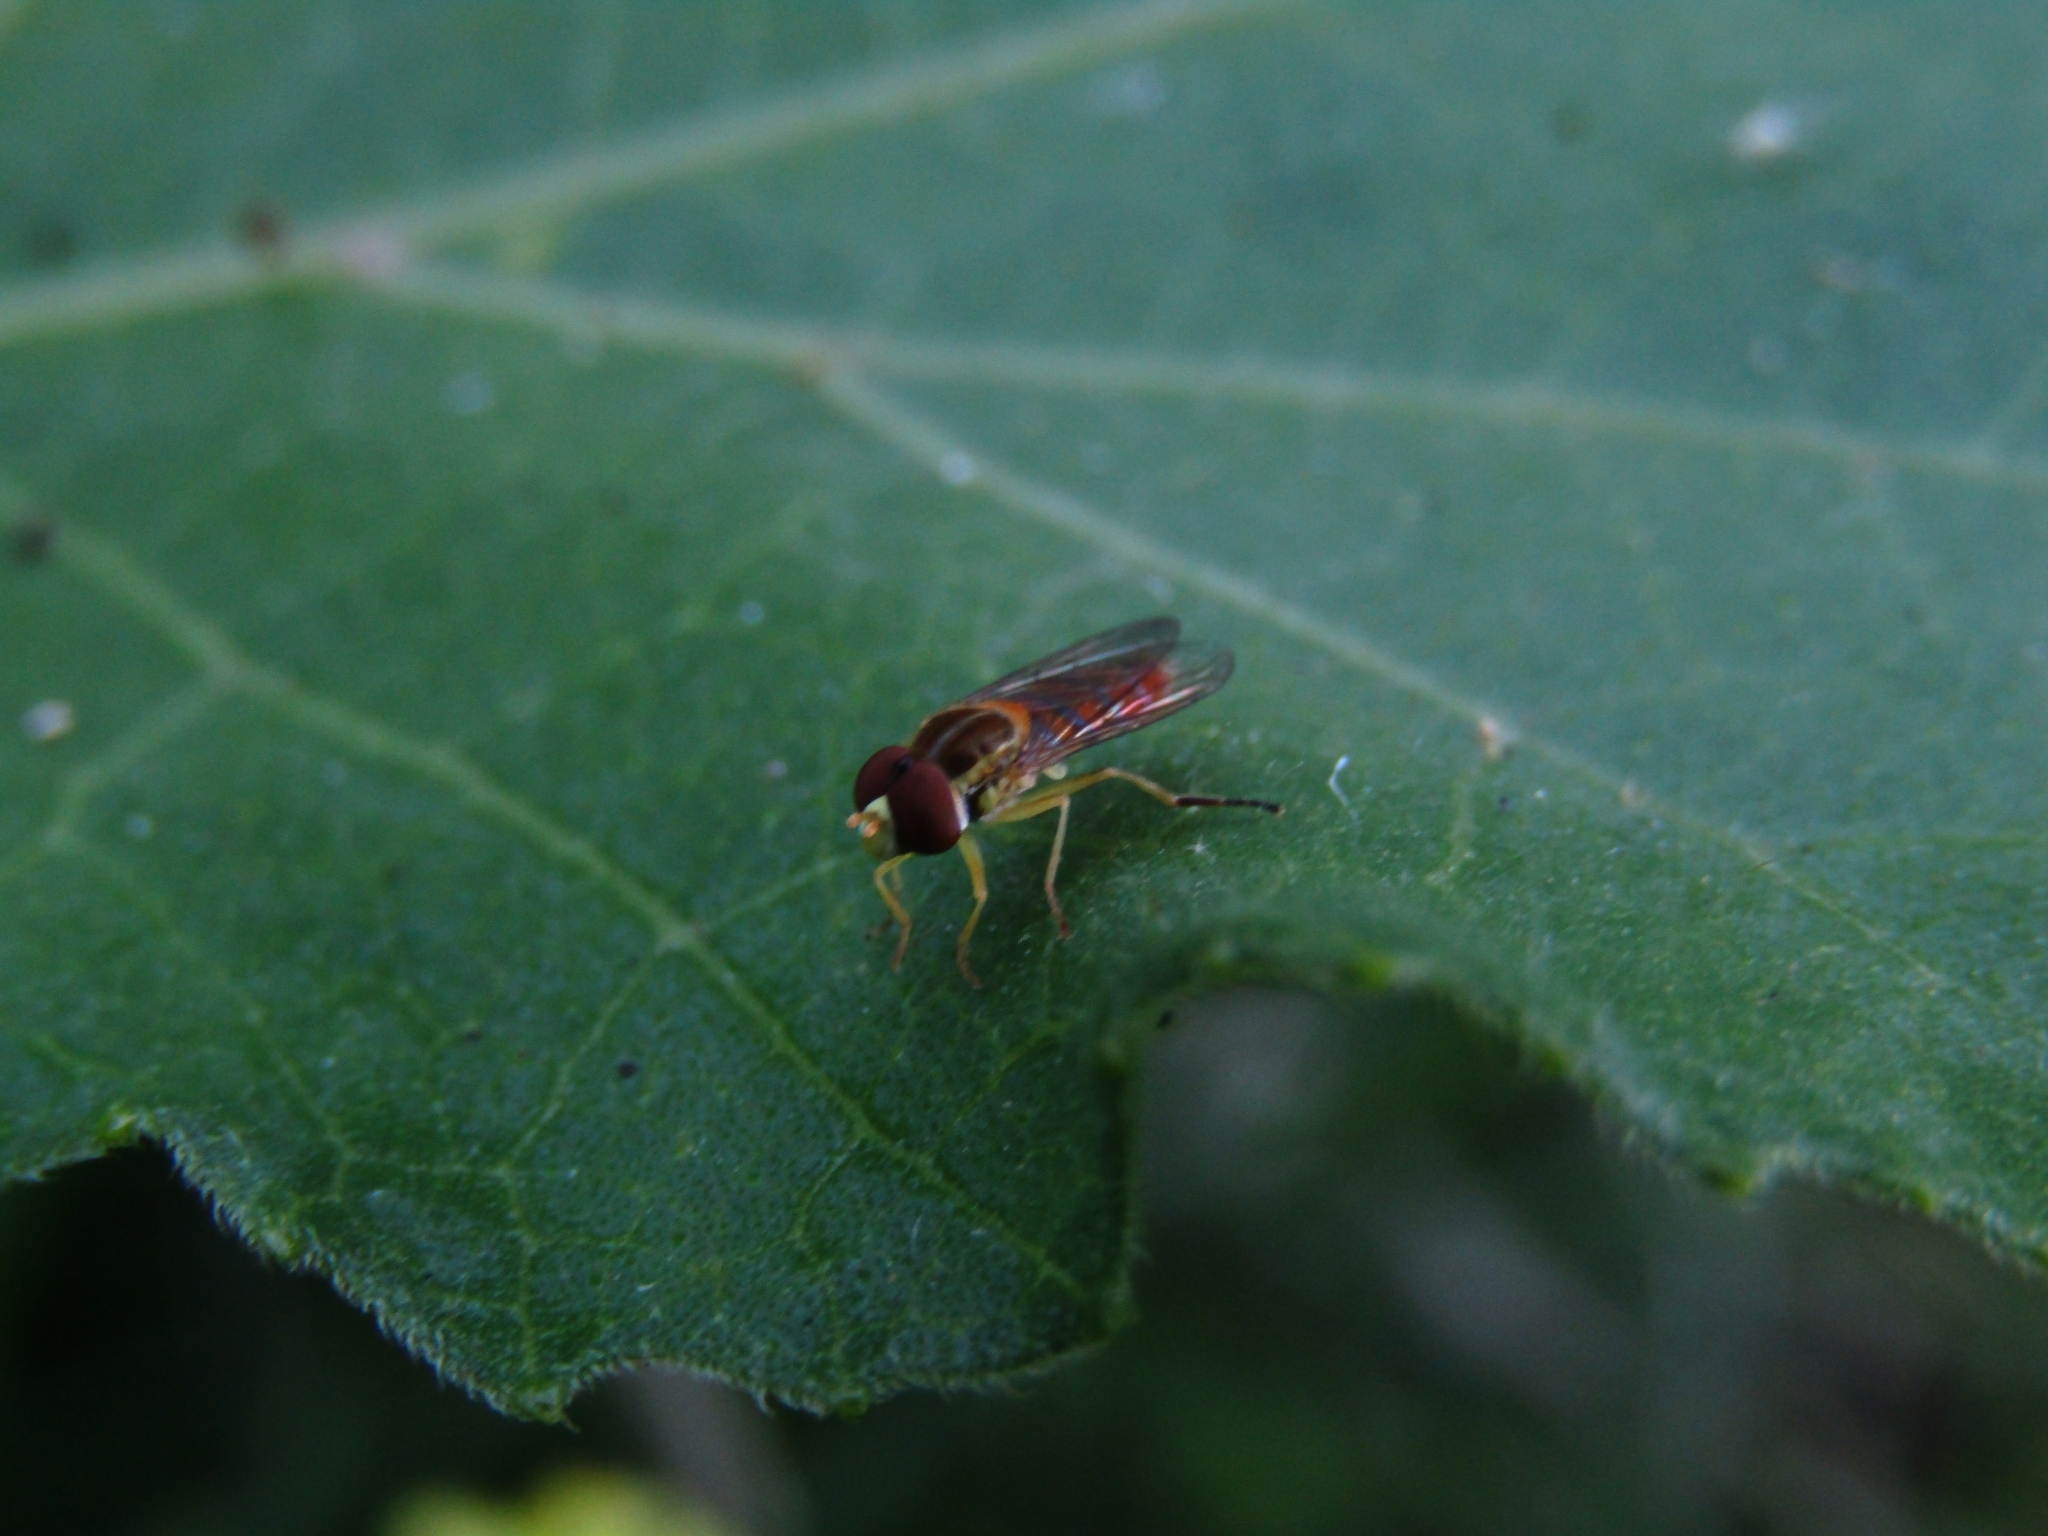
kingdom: Animalia
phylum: Arthropoda
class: Insecta
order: Diptera
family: Syrphidae
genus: Toxomerus
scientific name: Toxomerus
